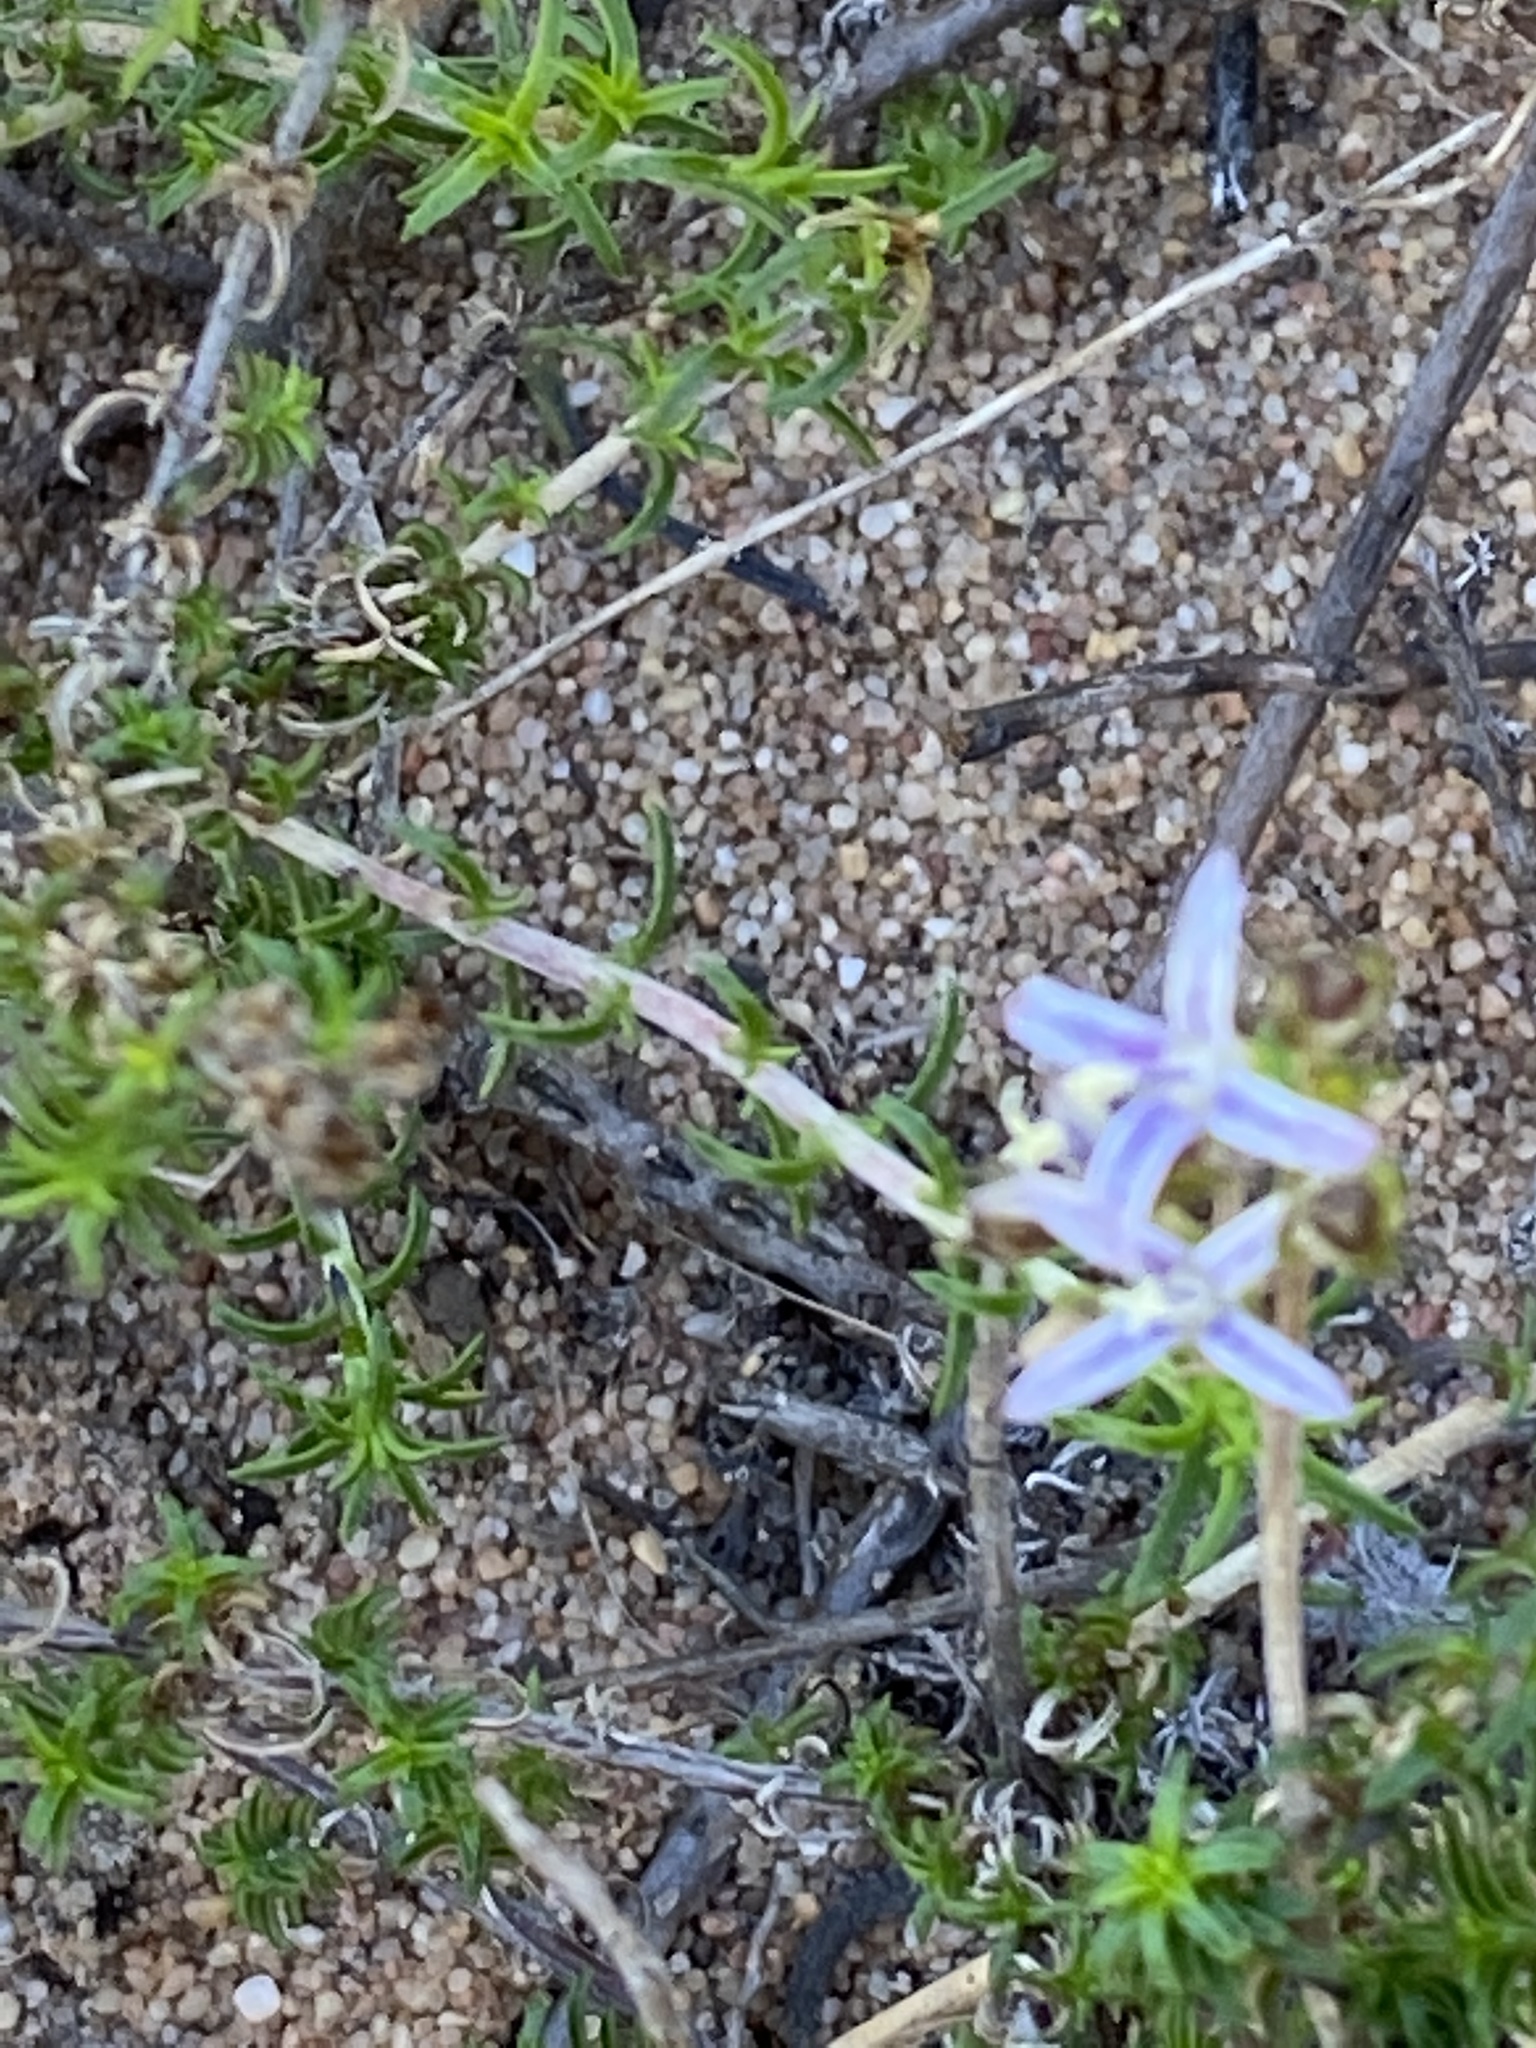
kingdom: Plantae
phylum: Tracheophyta
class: Magnoliopsida
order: Asterales
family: Campanulaceae
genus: Wahlenbergia
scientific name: Wahlenbergia tenella
